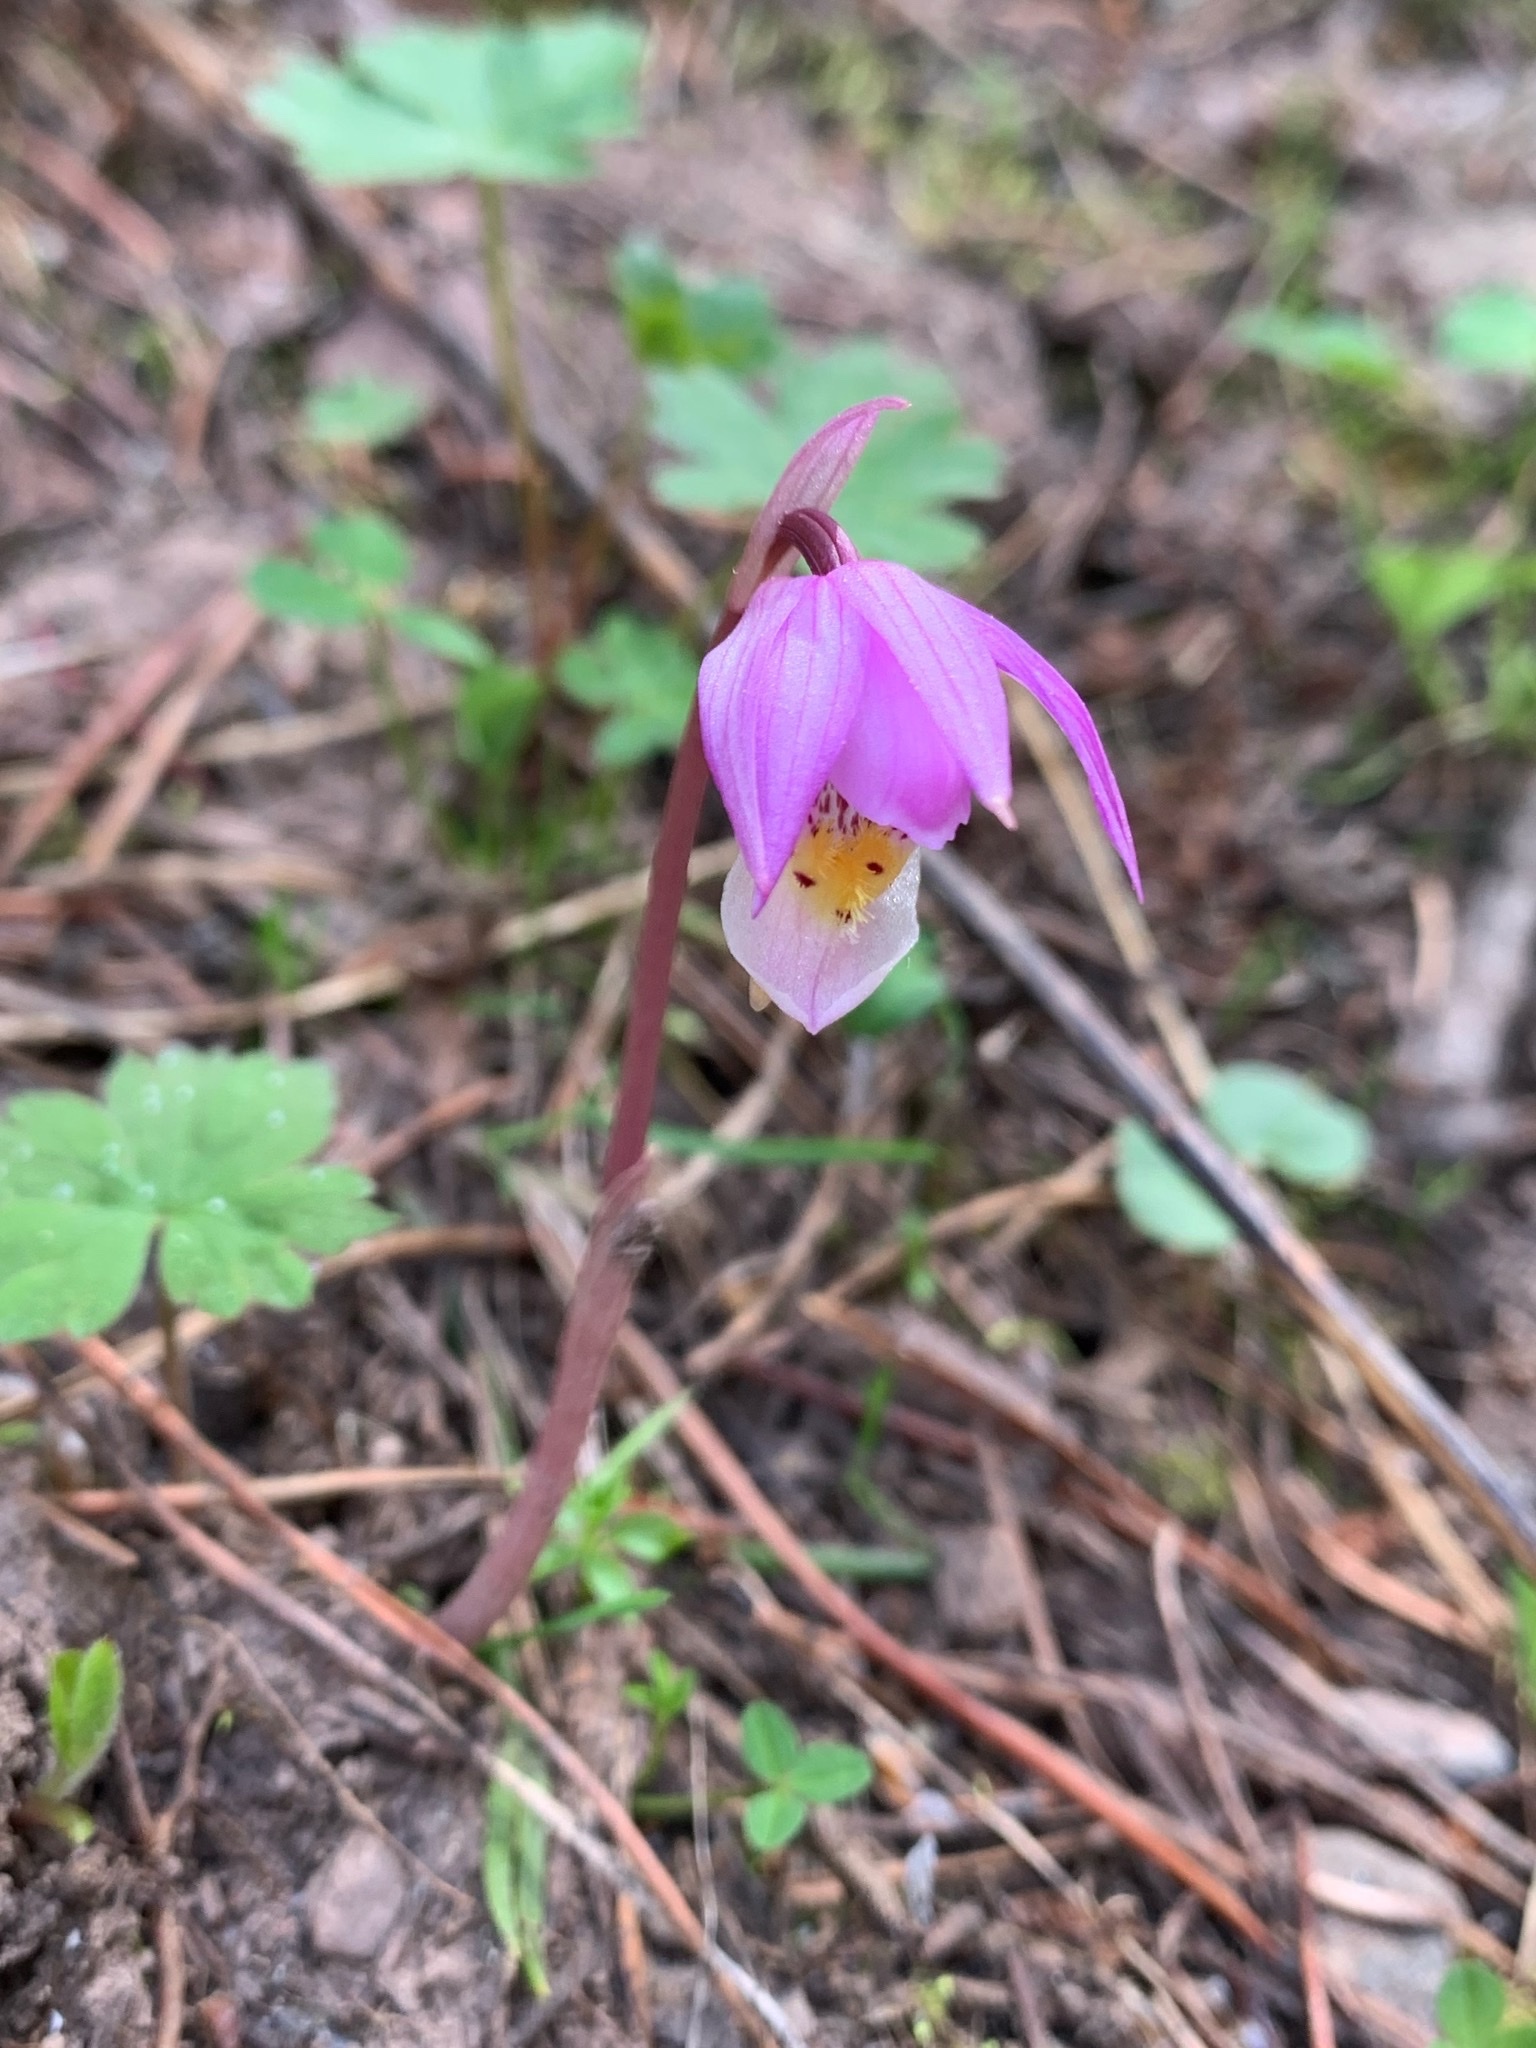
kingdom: Plantae
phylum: Tracheophyta
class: Liliopsida
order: Asparagales
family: Orchidaceae
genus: Calypso
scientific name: Calypso bulbosa
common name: Calypso
